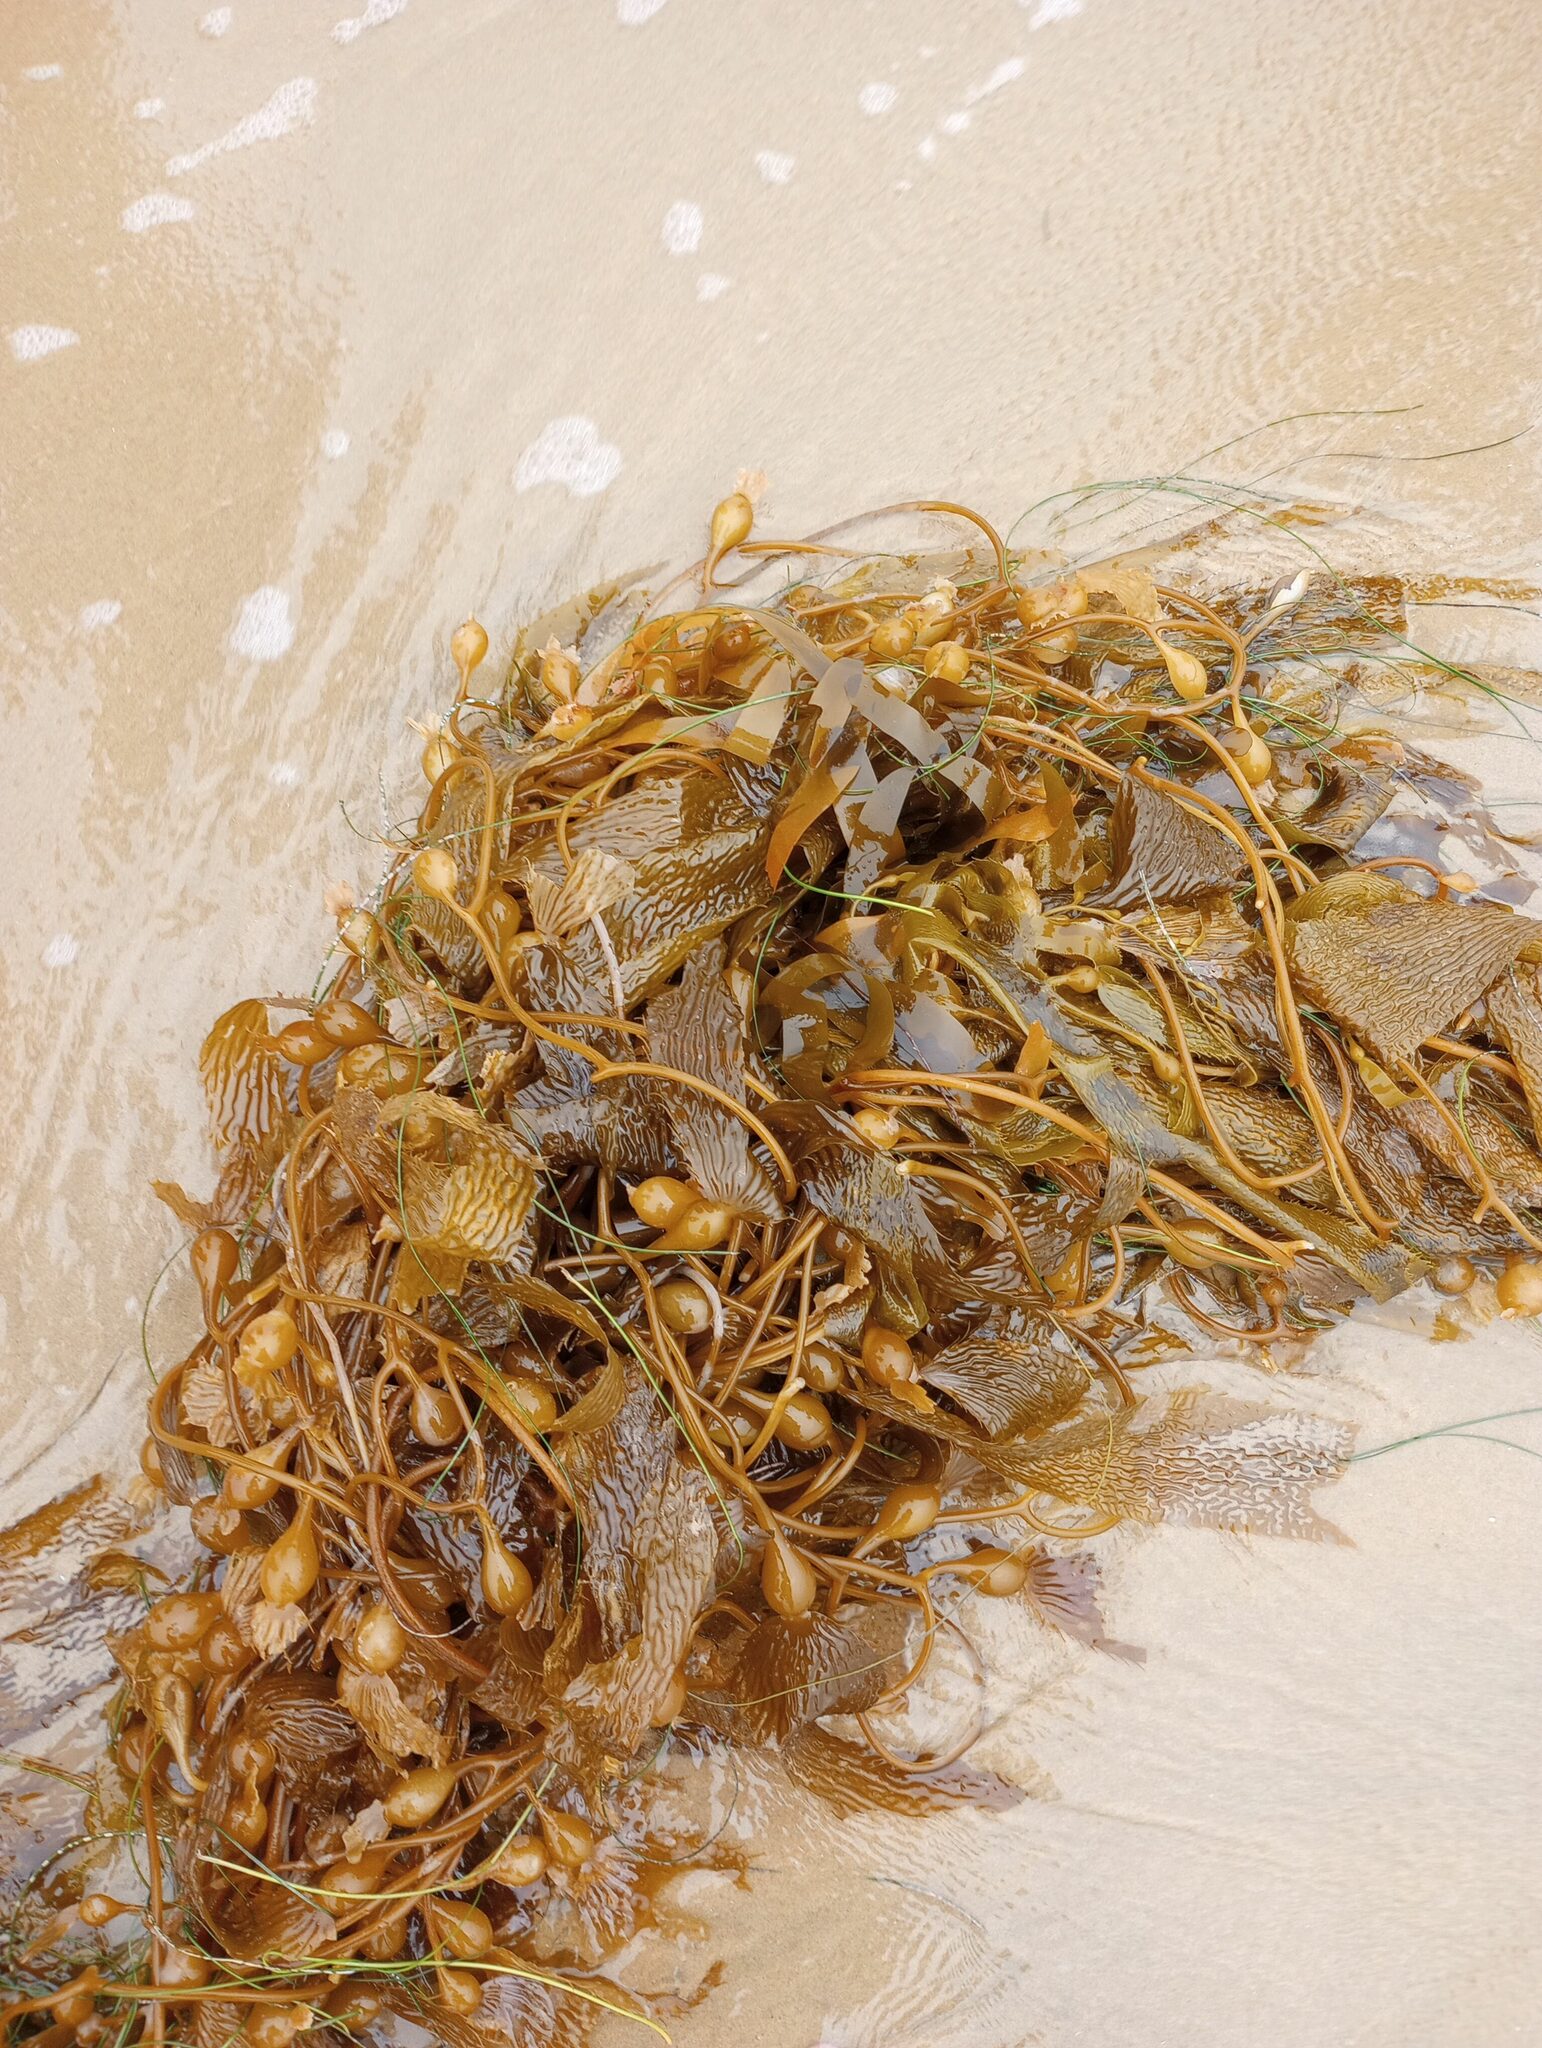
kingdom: Chromista
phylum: Ochrophyta
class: Phaeophyceae
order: Laminariales
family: Laminariaceae
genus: Macrocystis
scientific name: Macrocystis pyrifera
